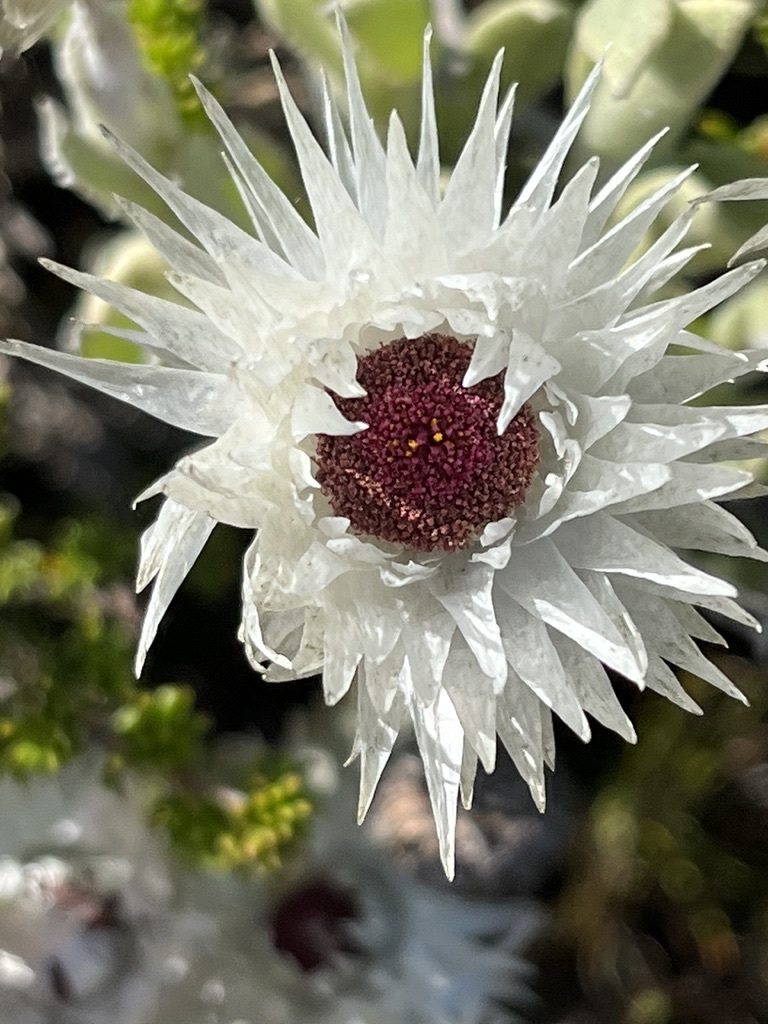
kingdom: Plantae
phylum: Tracheophyta
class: Magnoliopsida
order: Asterales
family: Asteraceae
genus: Syncarpha
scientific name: Syncarpha vestita
